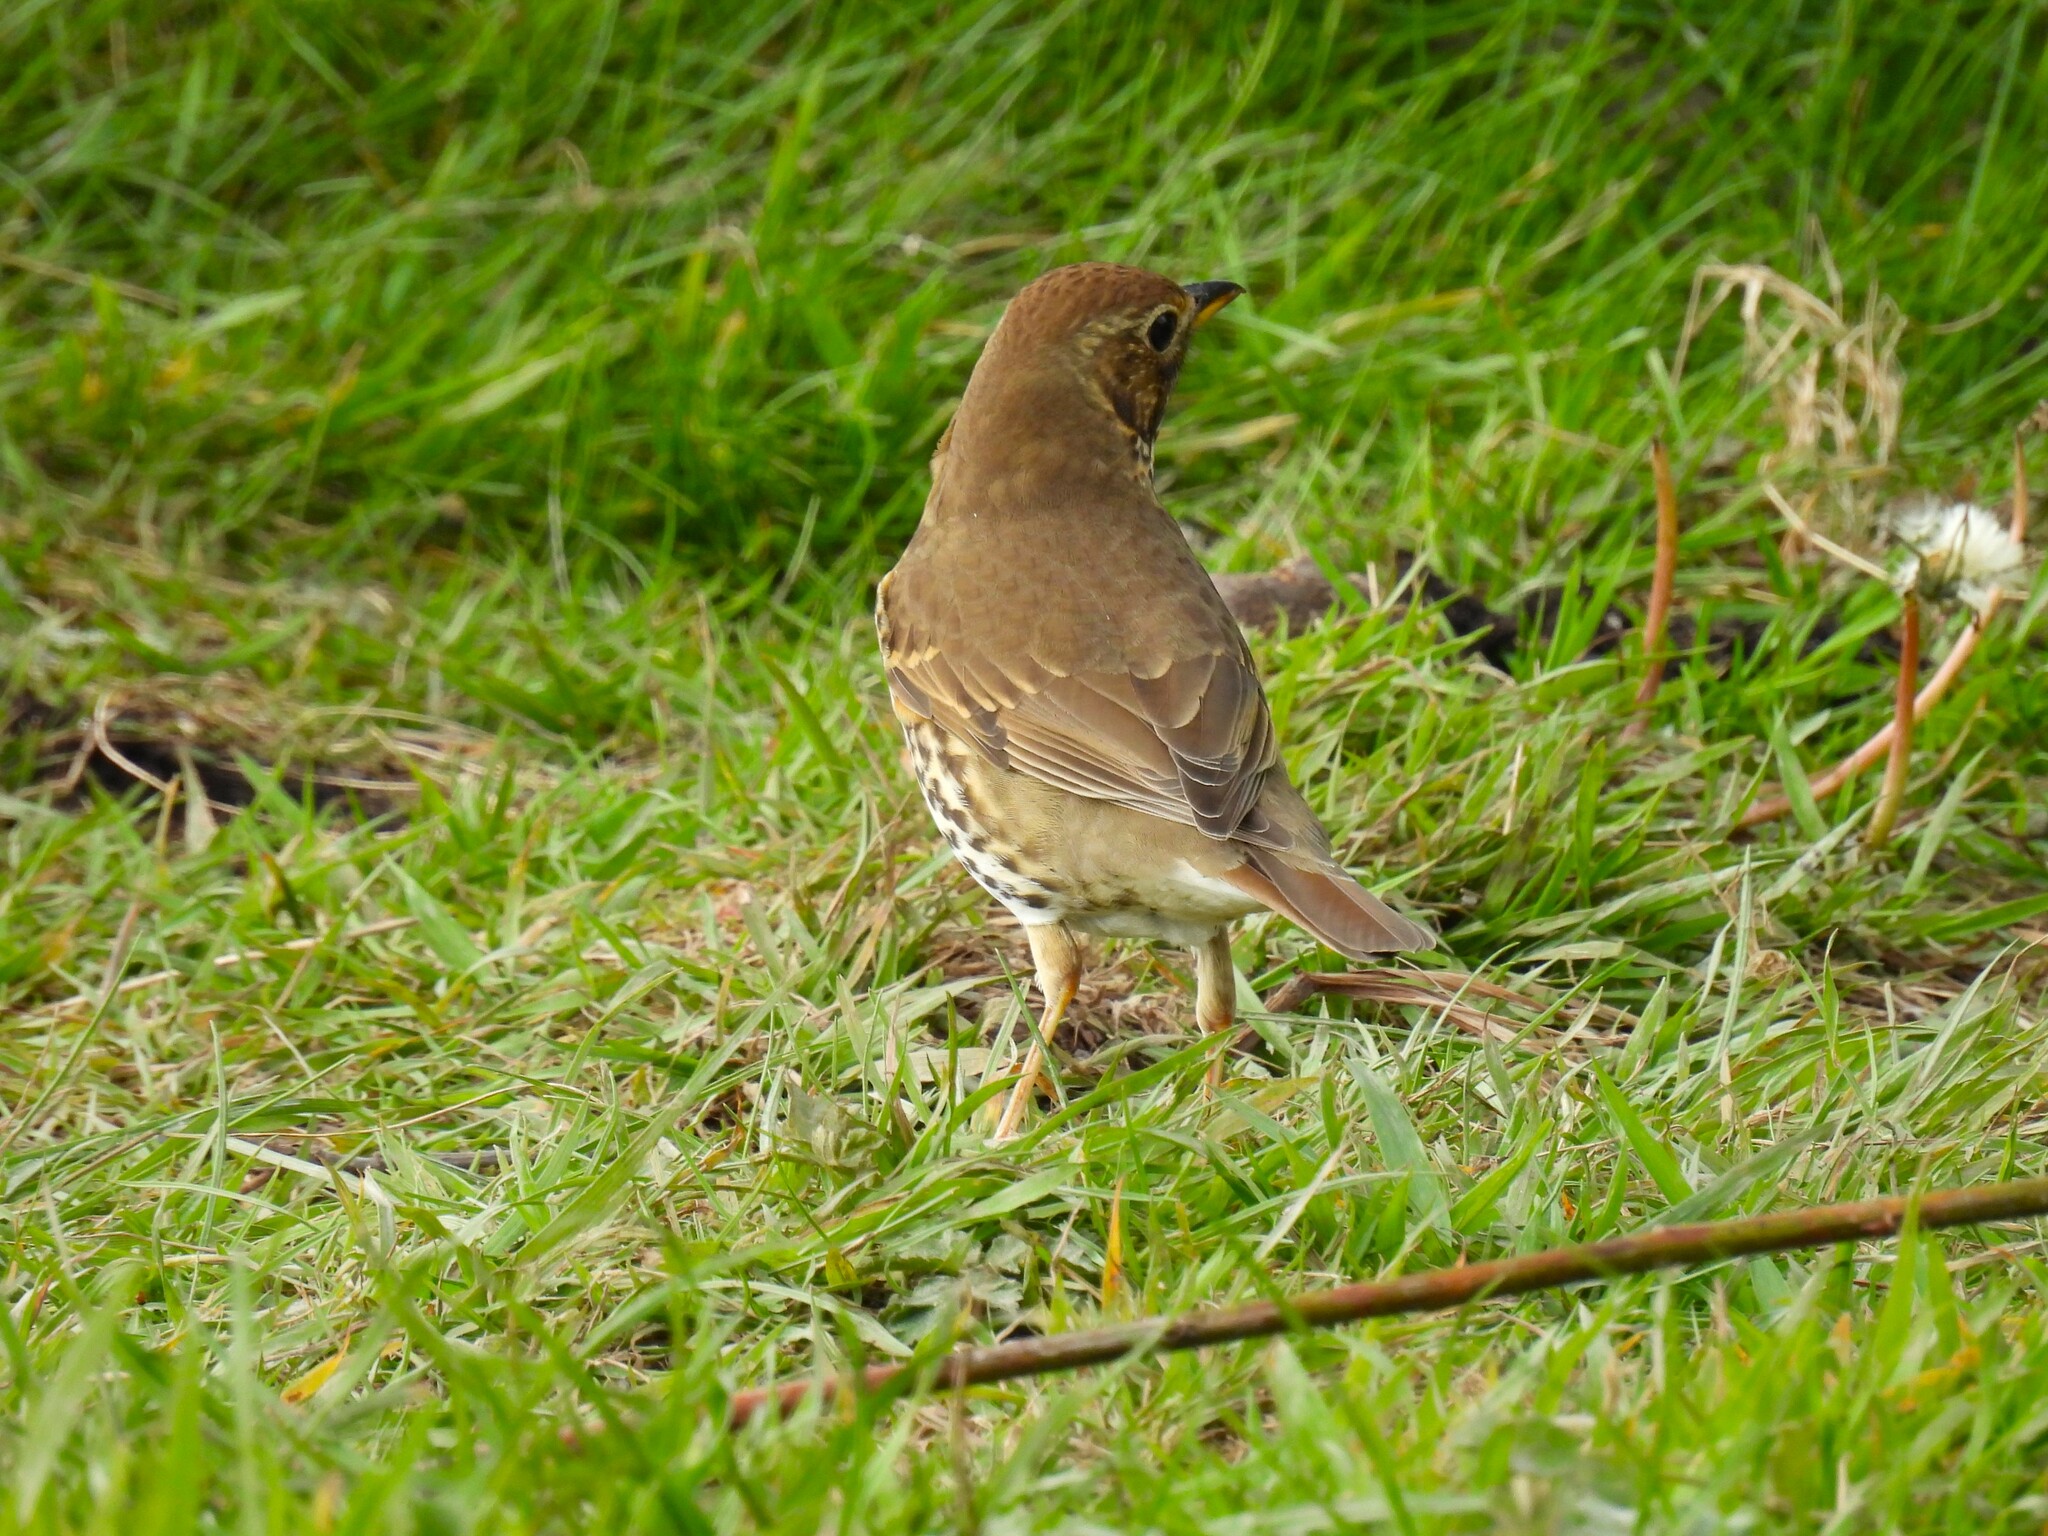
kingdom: Animalia
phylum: Chordata
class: Aves
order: Passeriformes
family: Turdidae
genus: Turdus
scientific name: Turdus philomelos
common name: Song thrush
